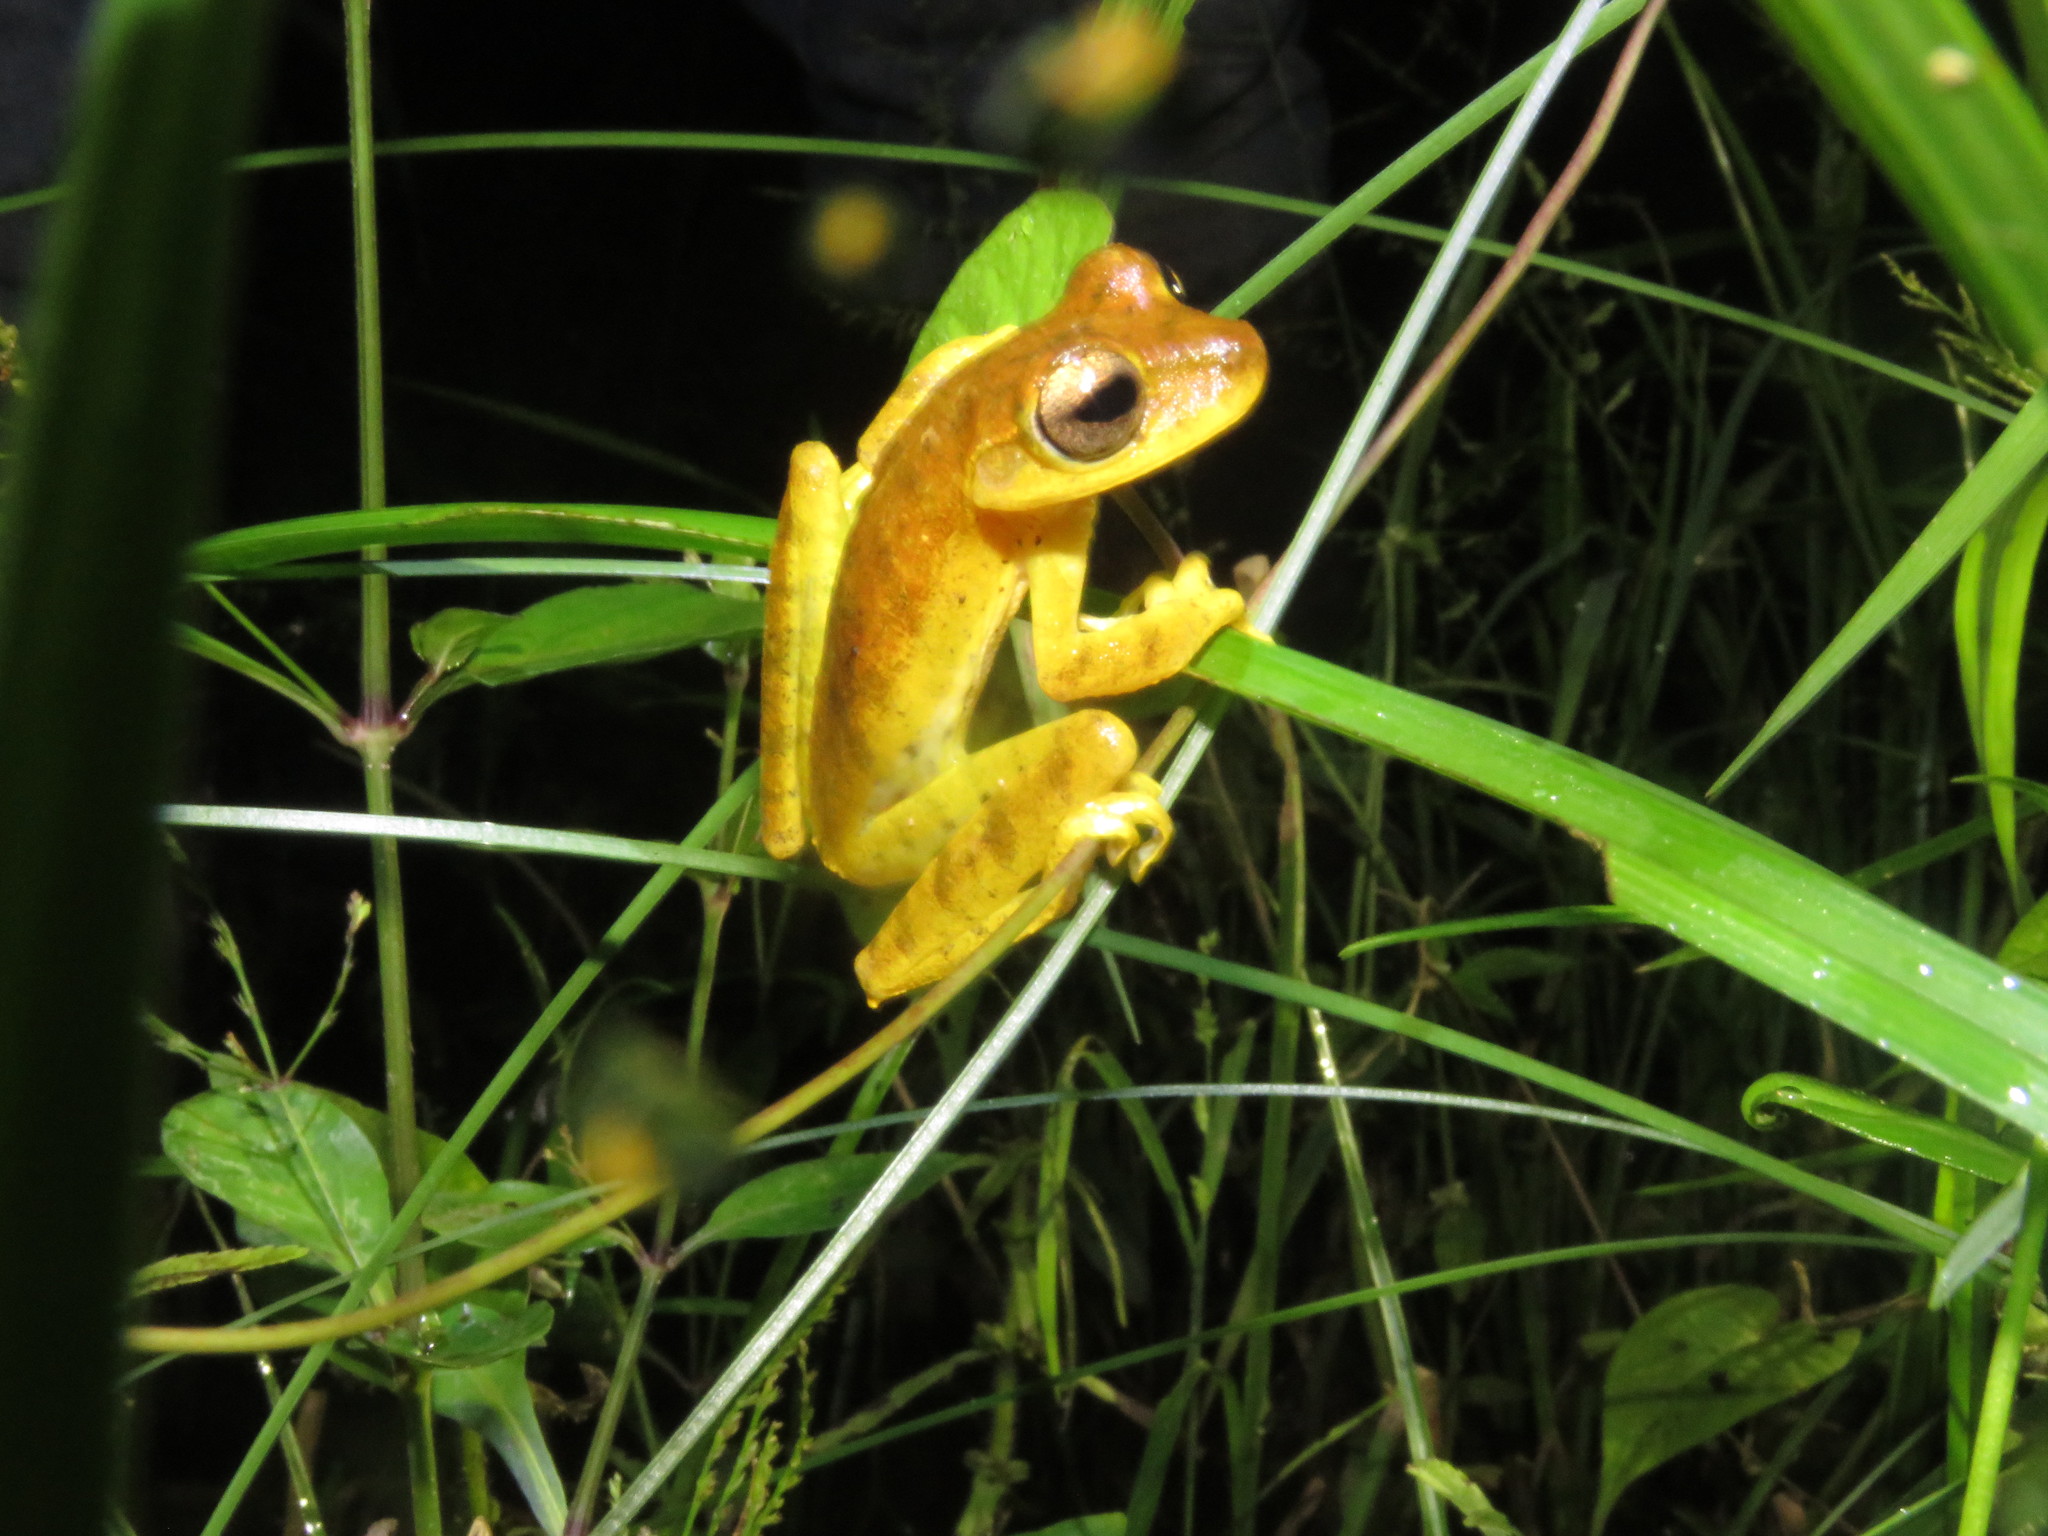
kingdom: Animalia
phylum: Chordata
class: Amphibia
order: Anura
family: Hylidae
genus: Boana
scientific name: Boana steinbachi
